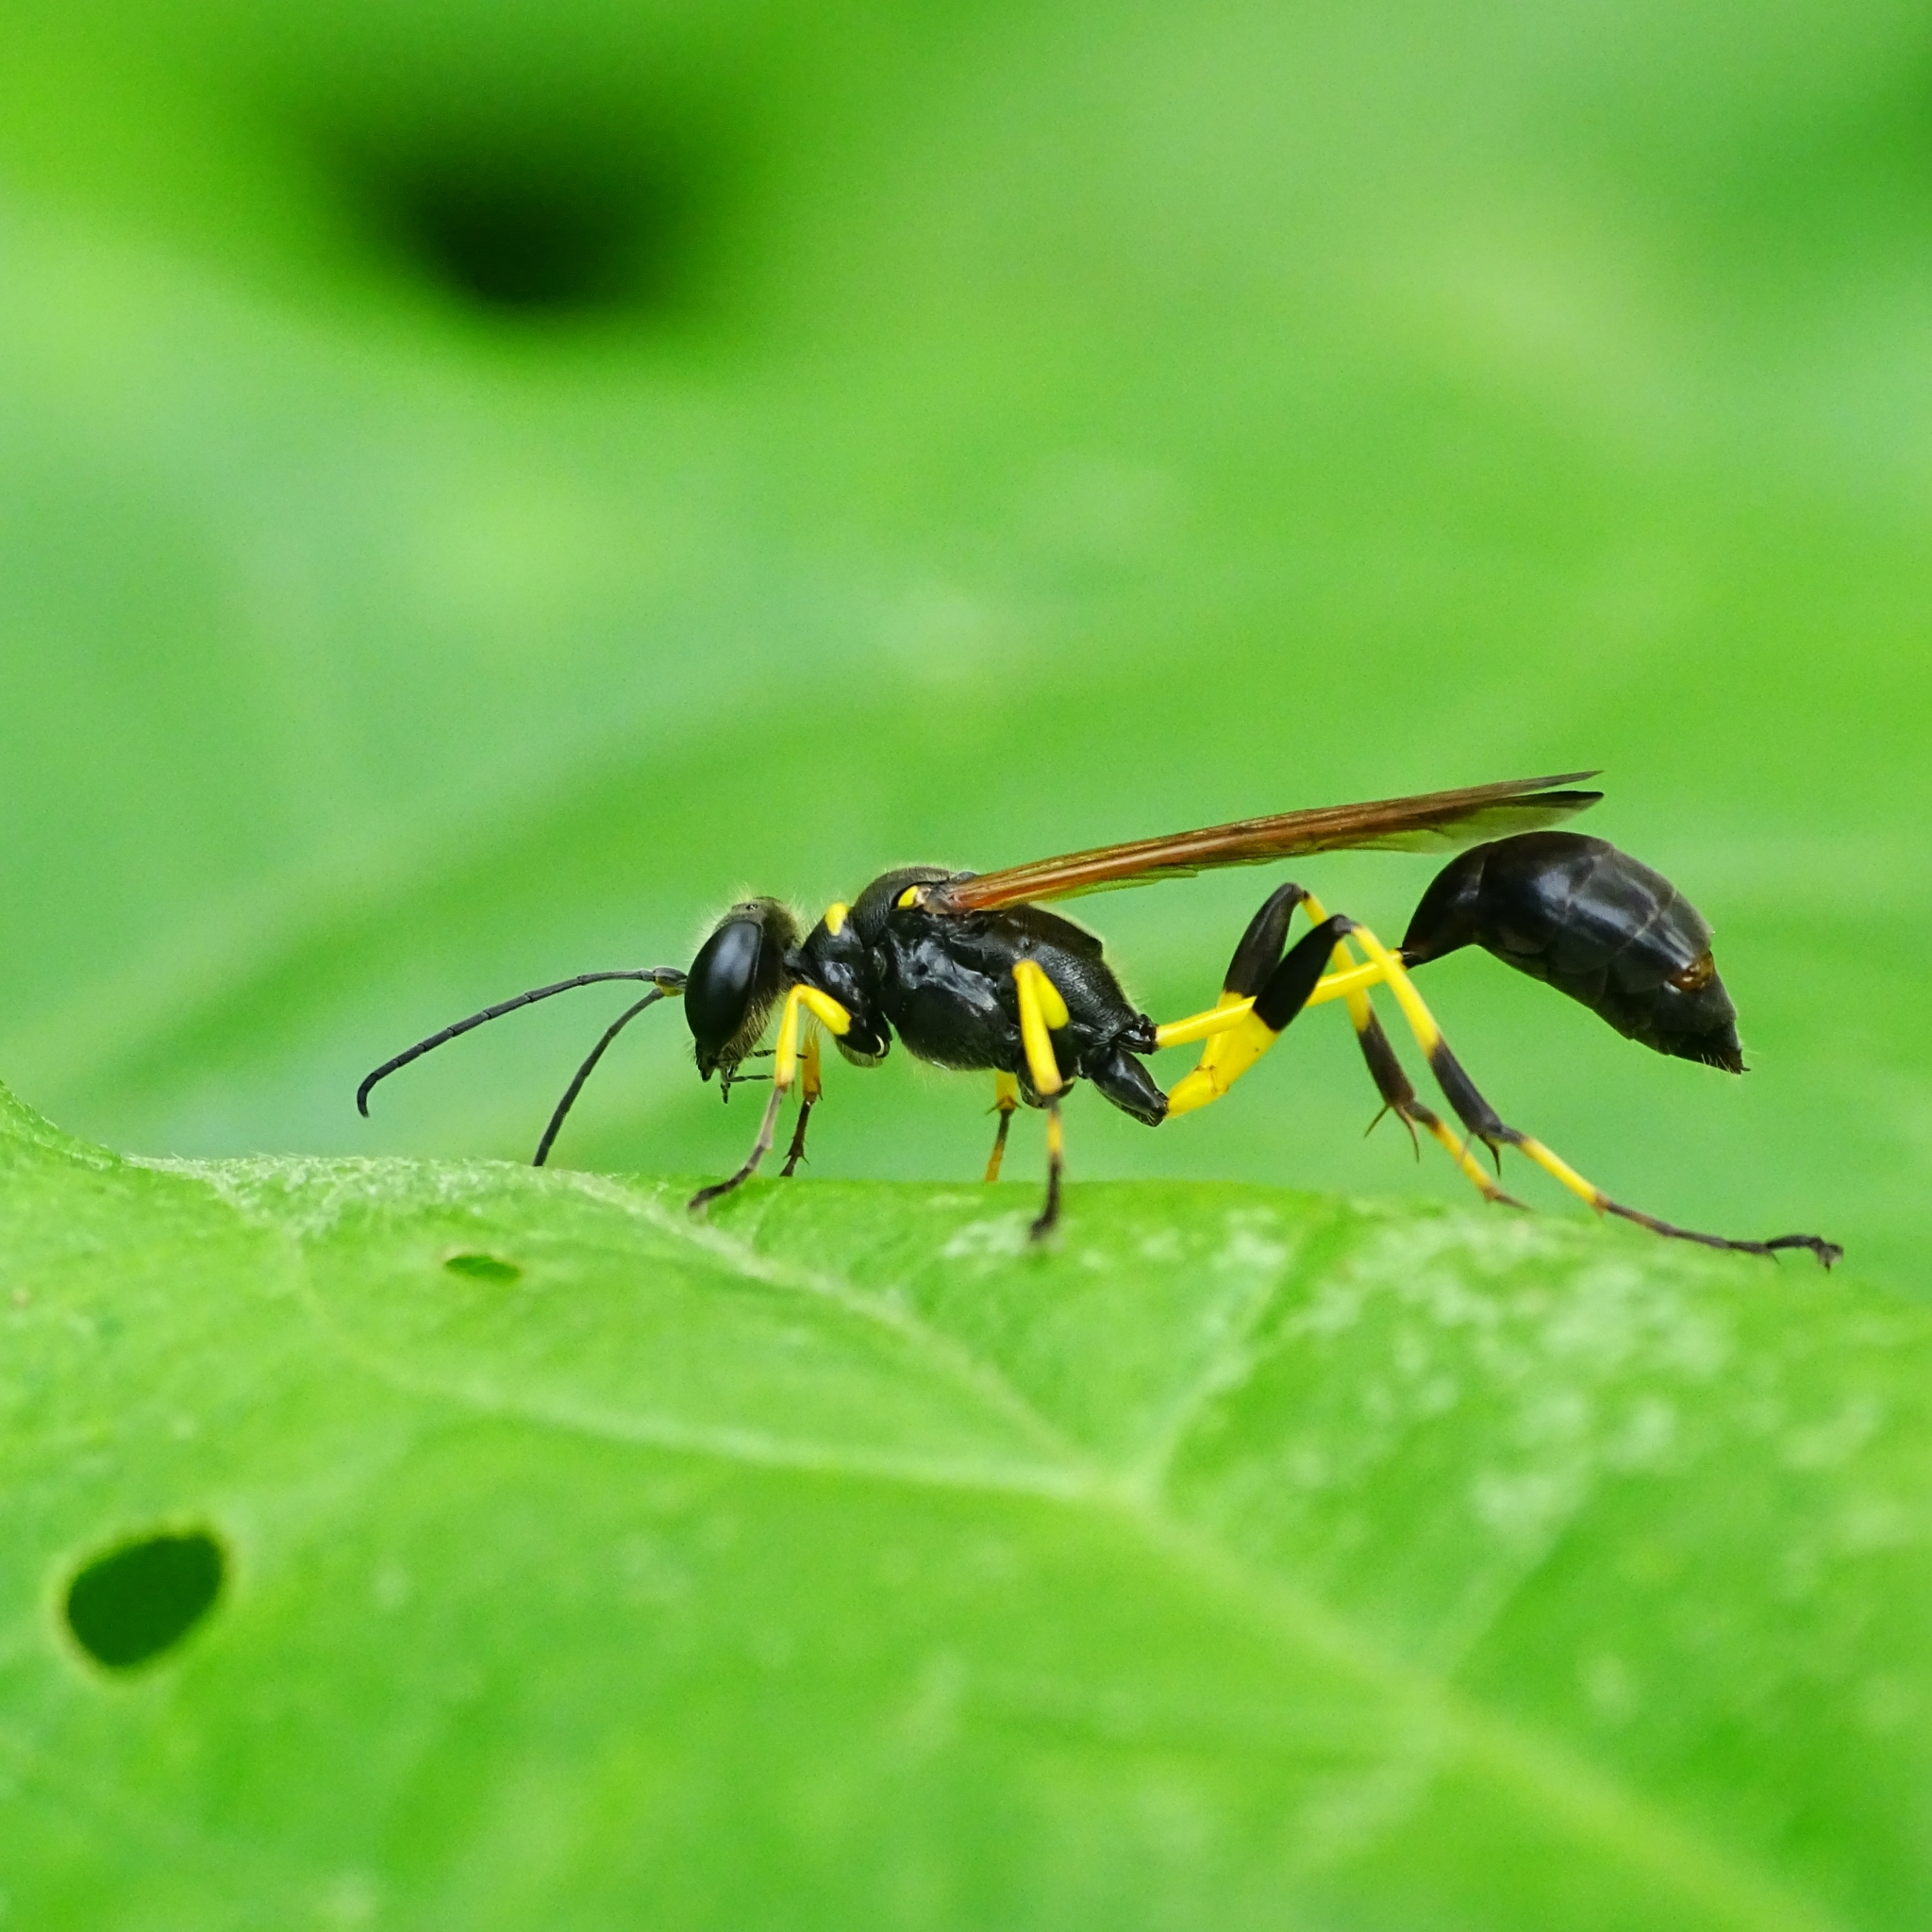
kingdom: Animalia
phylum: Arthropoda
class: Insecta
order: Hymenoptera
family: Sphecidae
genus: Sceliphron
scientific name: Sceliphron madraspatanum
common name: Mud dauber
